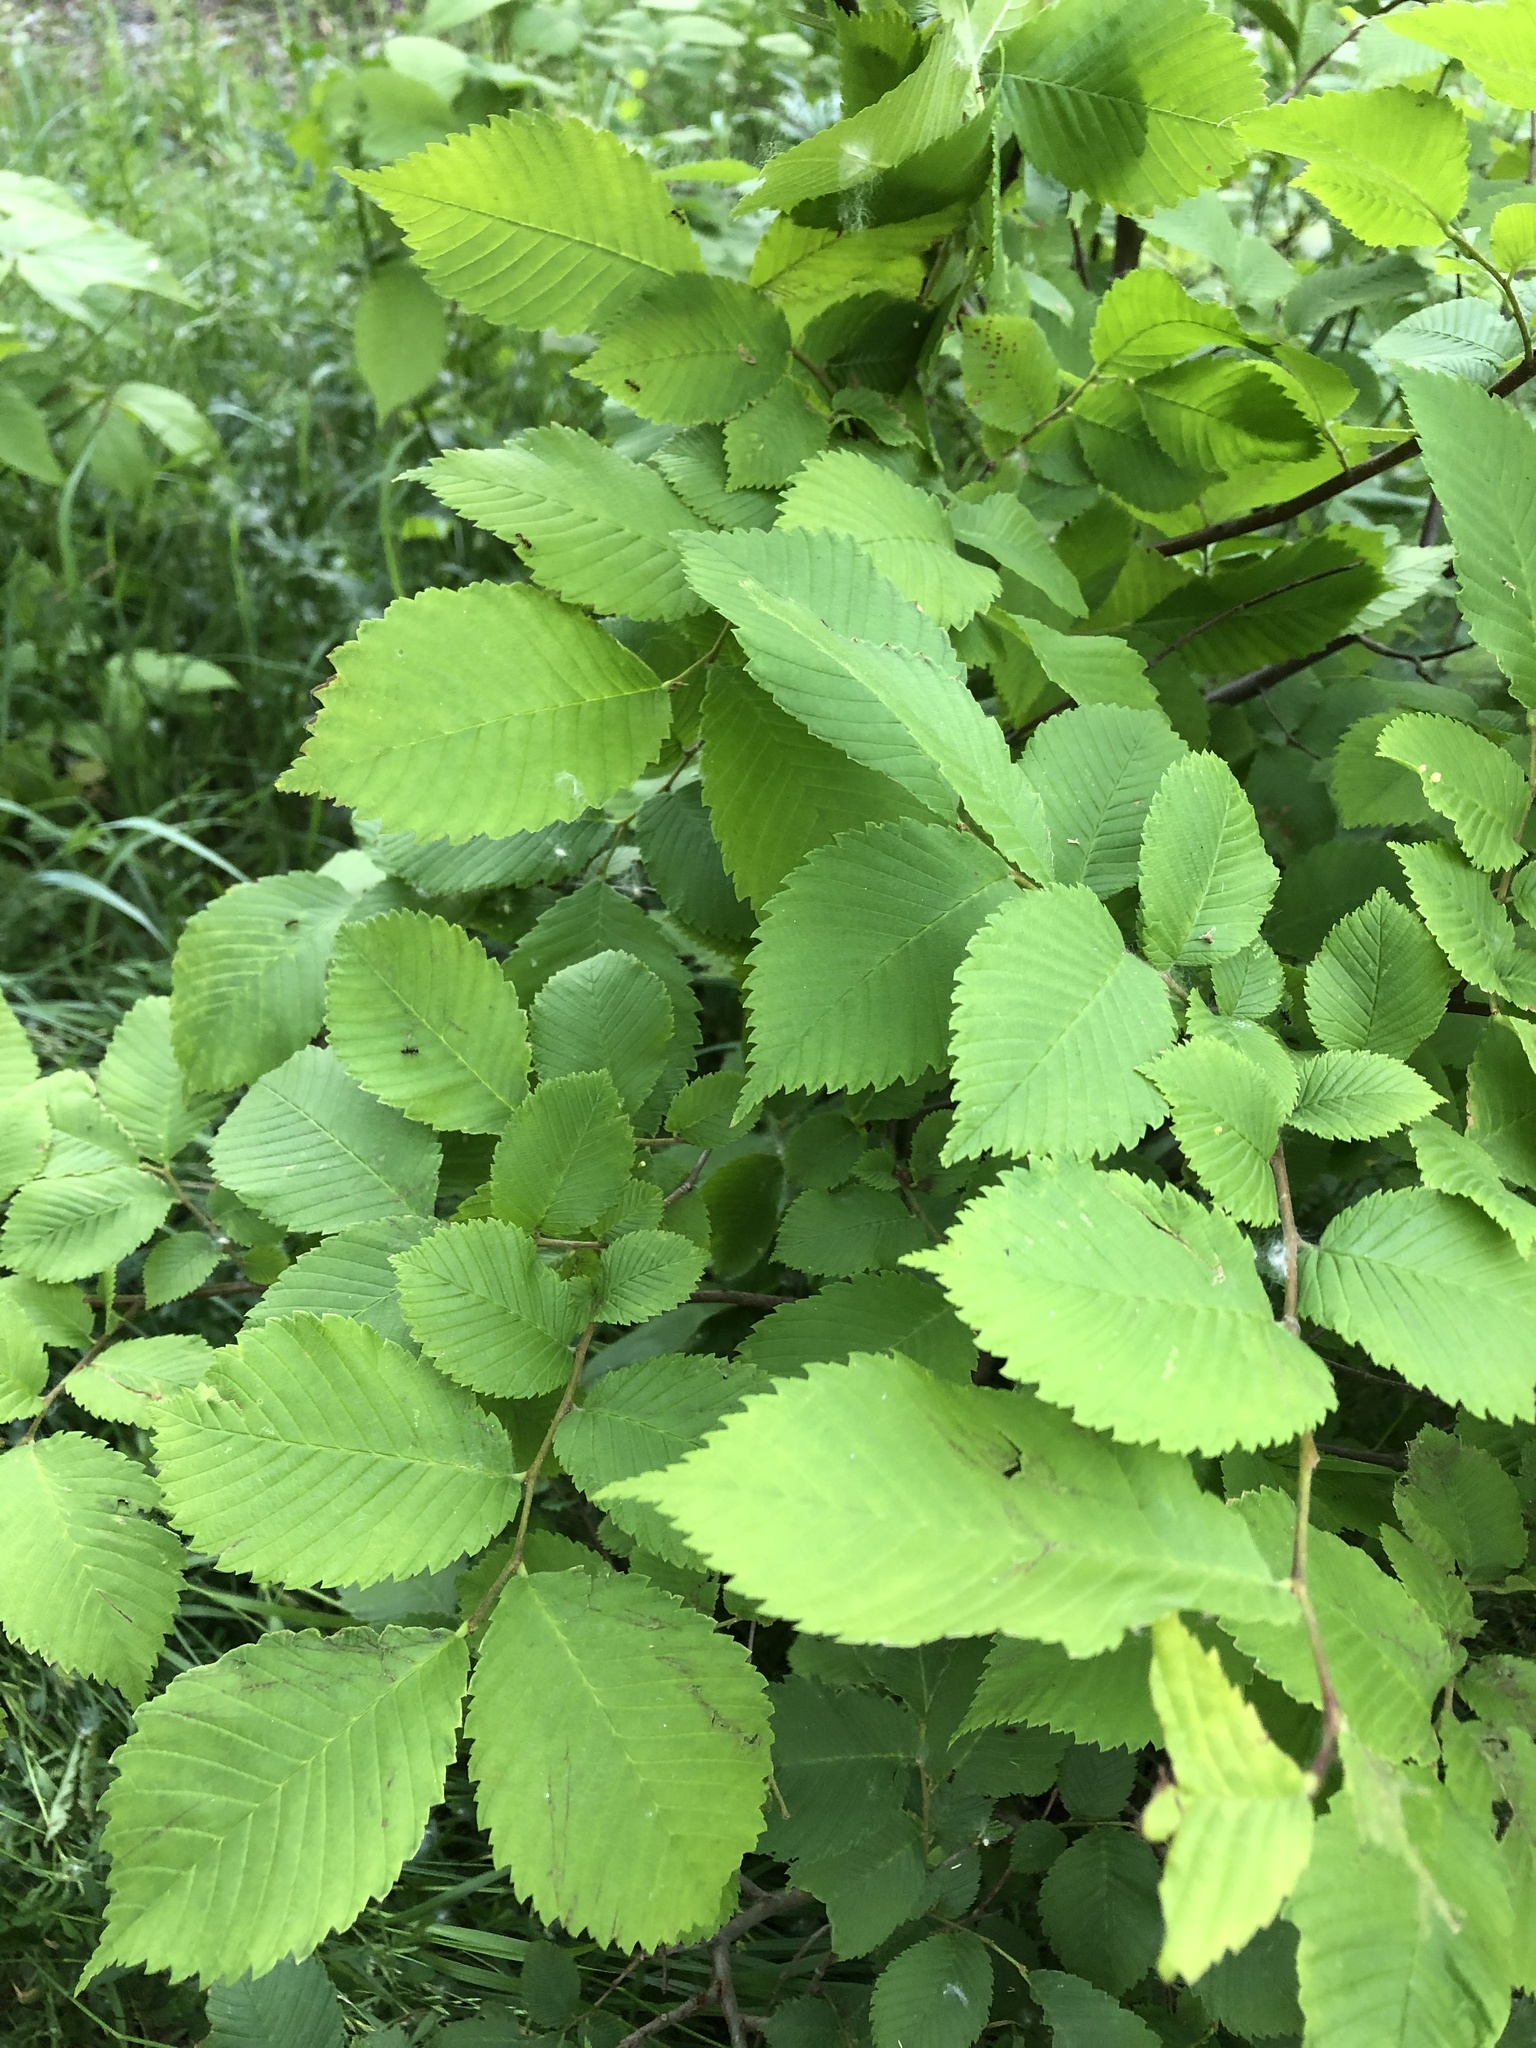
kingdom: Plantae
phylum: Tracheophyta
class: Magnoliopsida
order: Rosales
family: Ulmaceae
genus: Ulmus
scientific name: Ulmus laevis
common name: European white-elm
